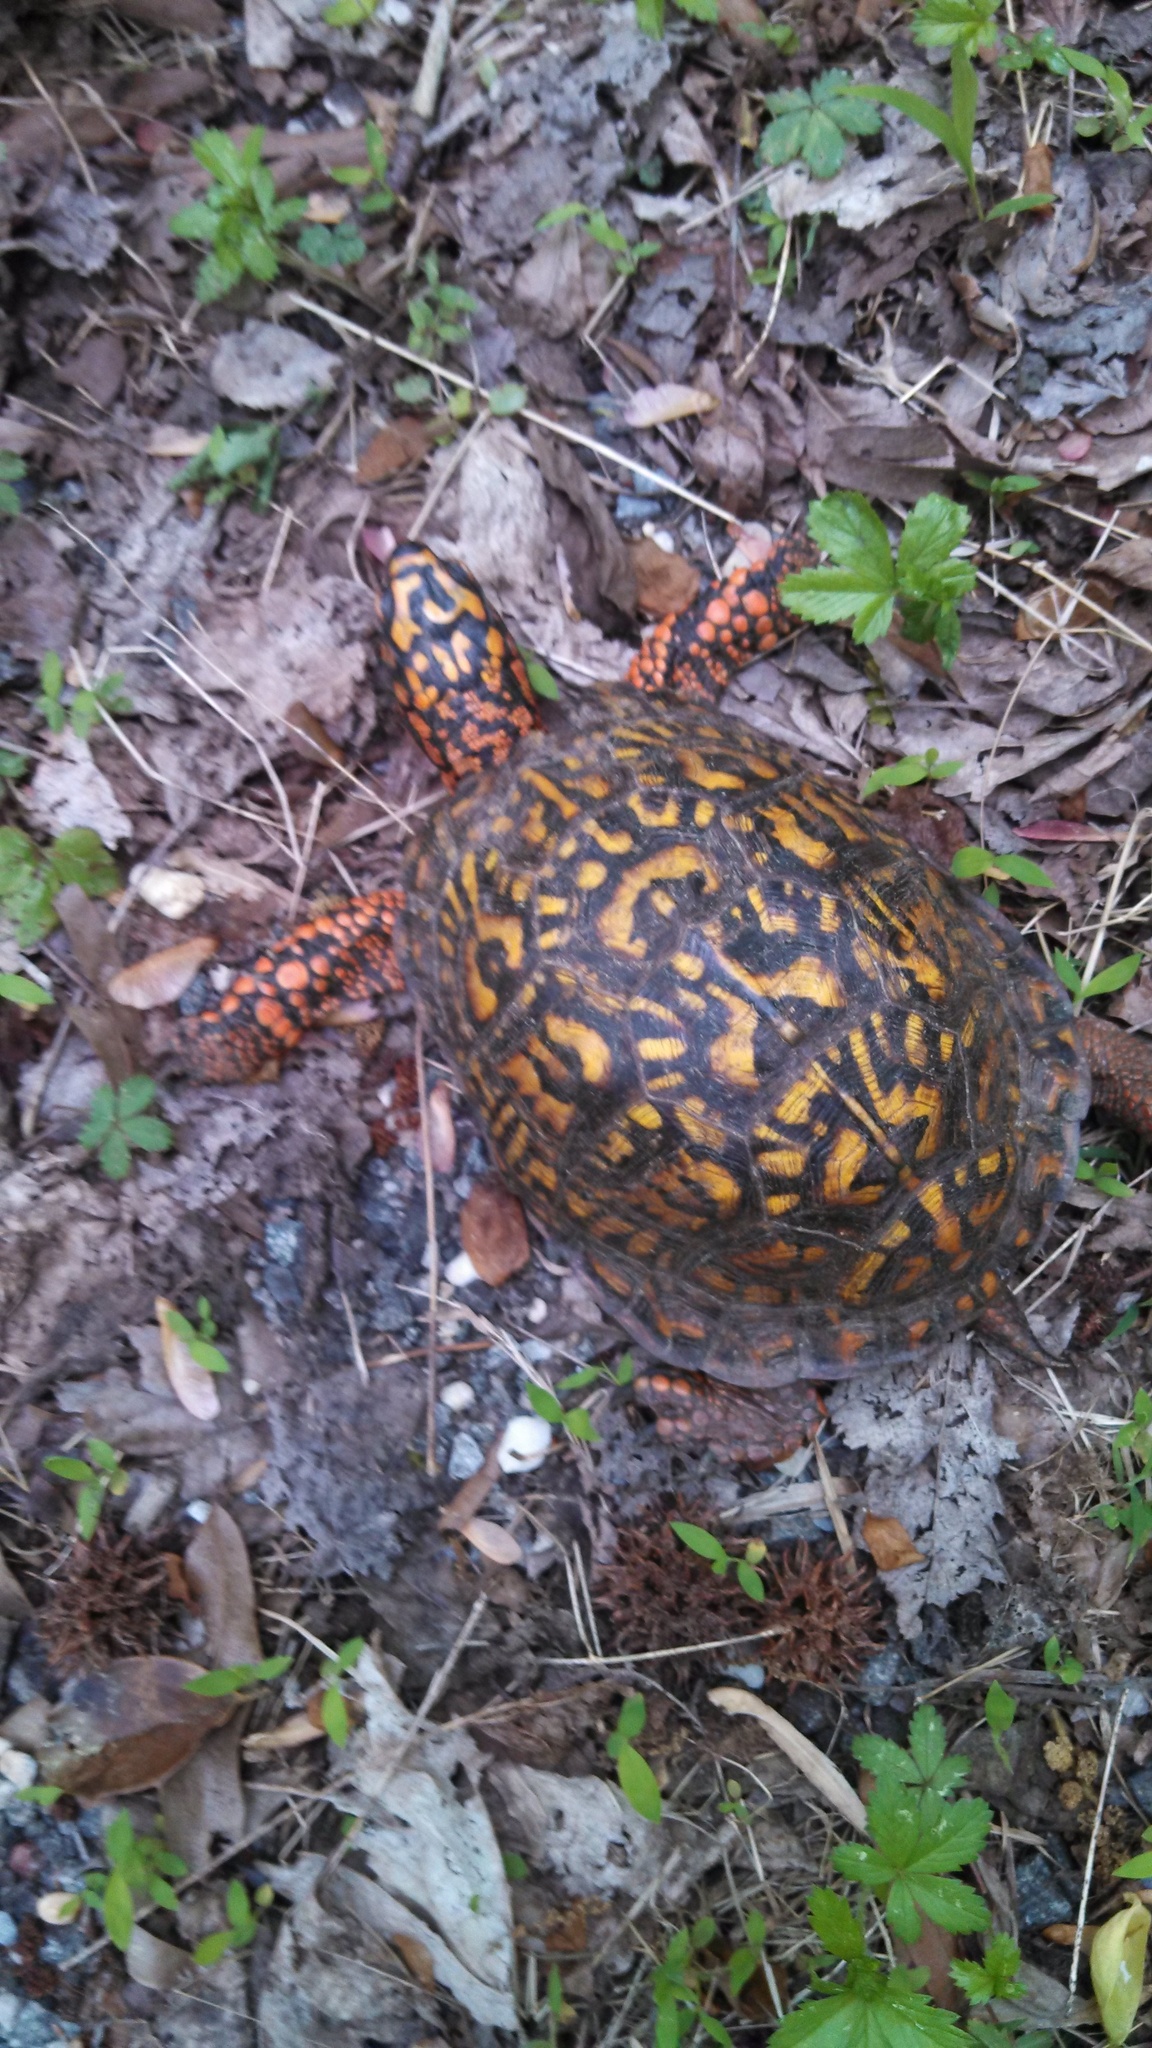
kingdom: Animalia
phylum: Chordata
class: Testudines
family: Emydidae
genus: Terrapene
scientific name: Terrapene carolina
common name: Common box turtle
